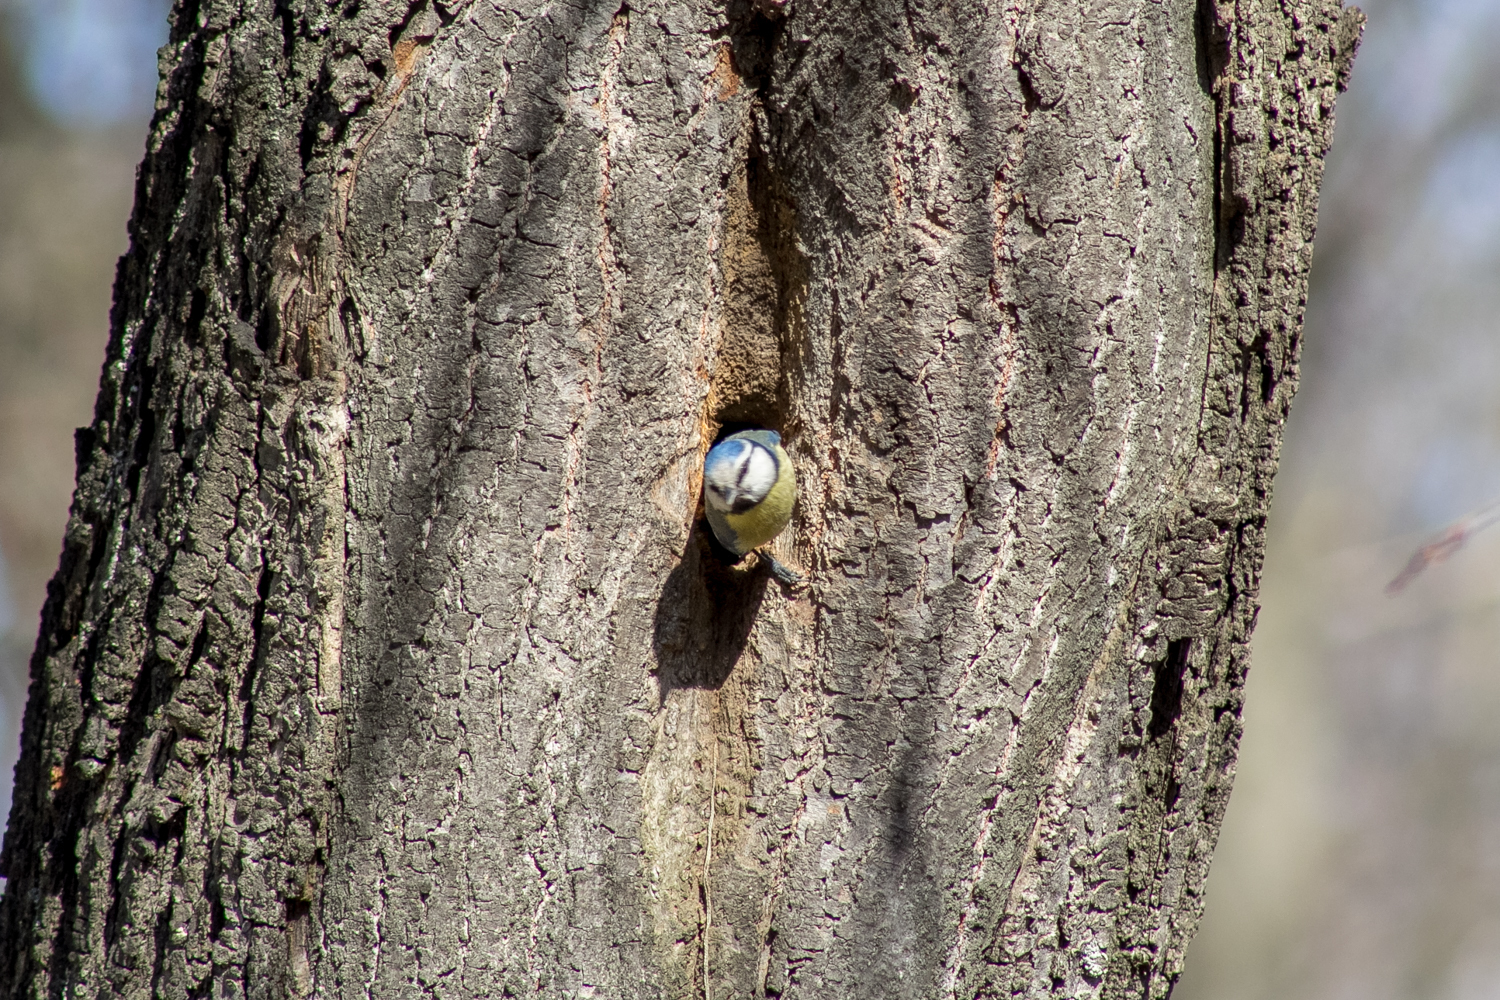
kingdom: Animalia
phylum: Chordata
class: Aves
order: Passeriformes
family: Paridae
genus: Cyanistes
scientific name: Cyanistes caeruleus
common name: Eurasian blue tit
